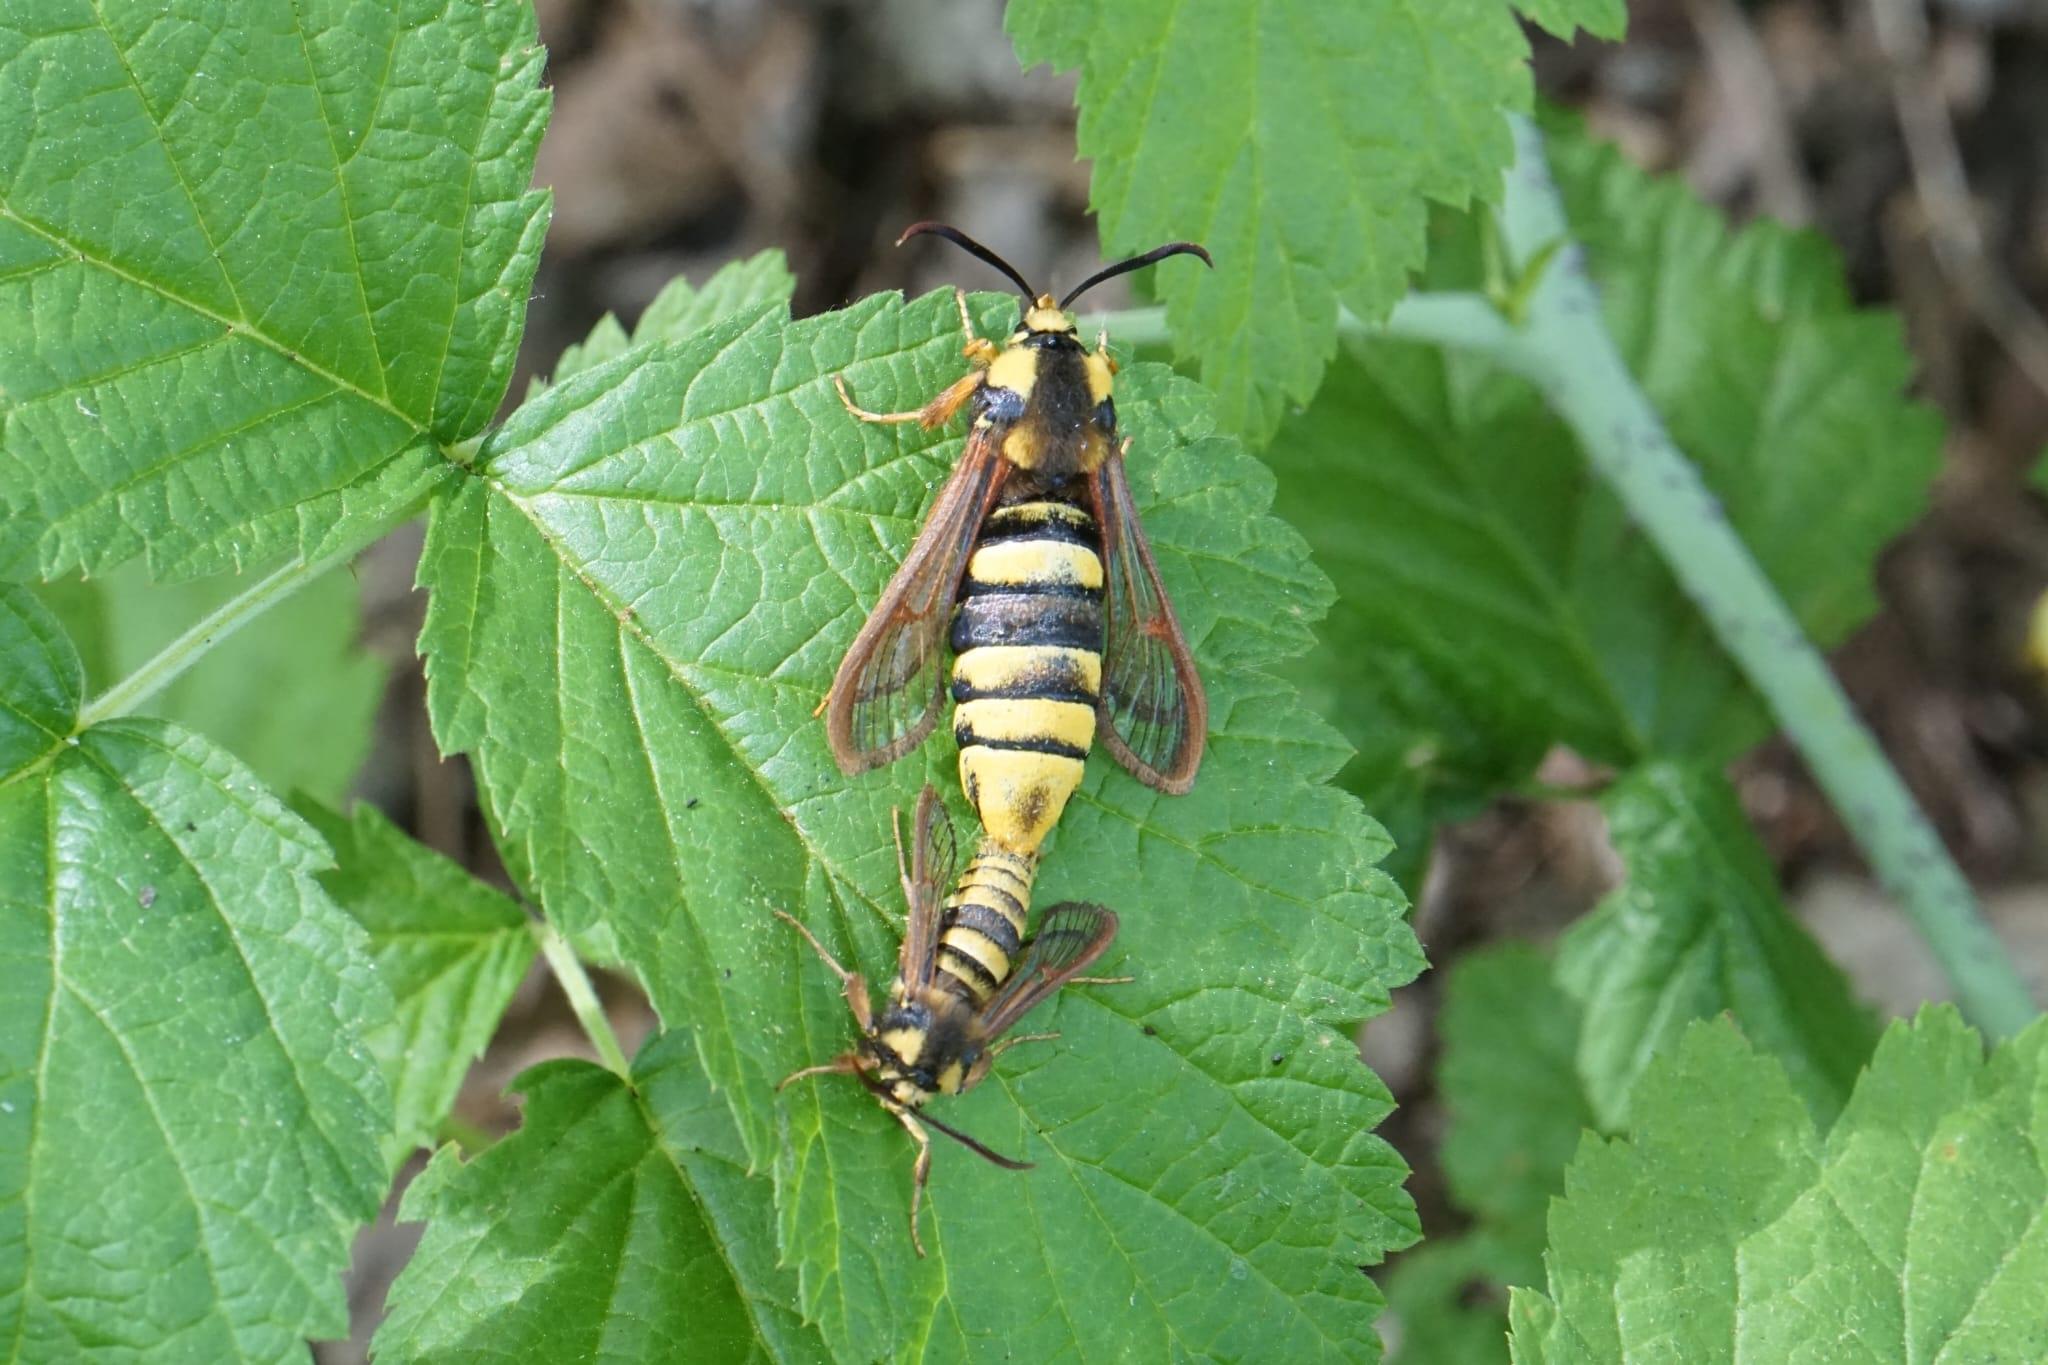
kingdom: Animalia
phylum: Arthropoda
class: Insecta
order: Lepidoptera
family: Sesiidae
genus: Sesia
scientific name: Sesia apiformis
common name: Hornet moth
